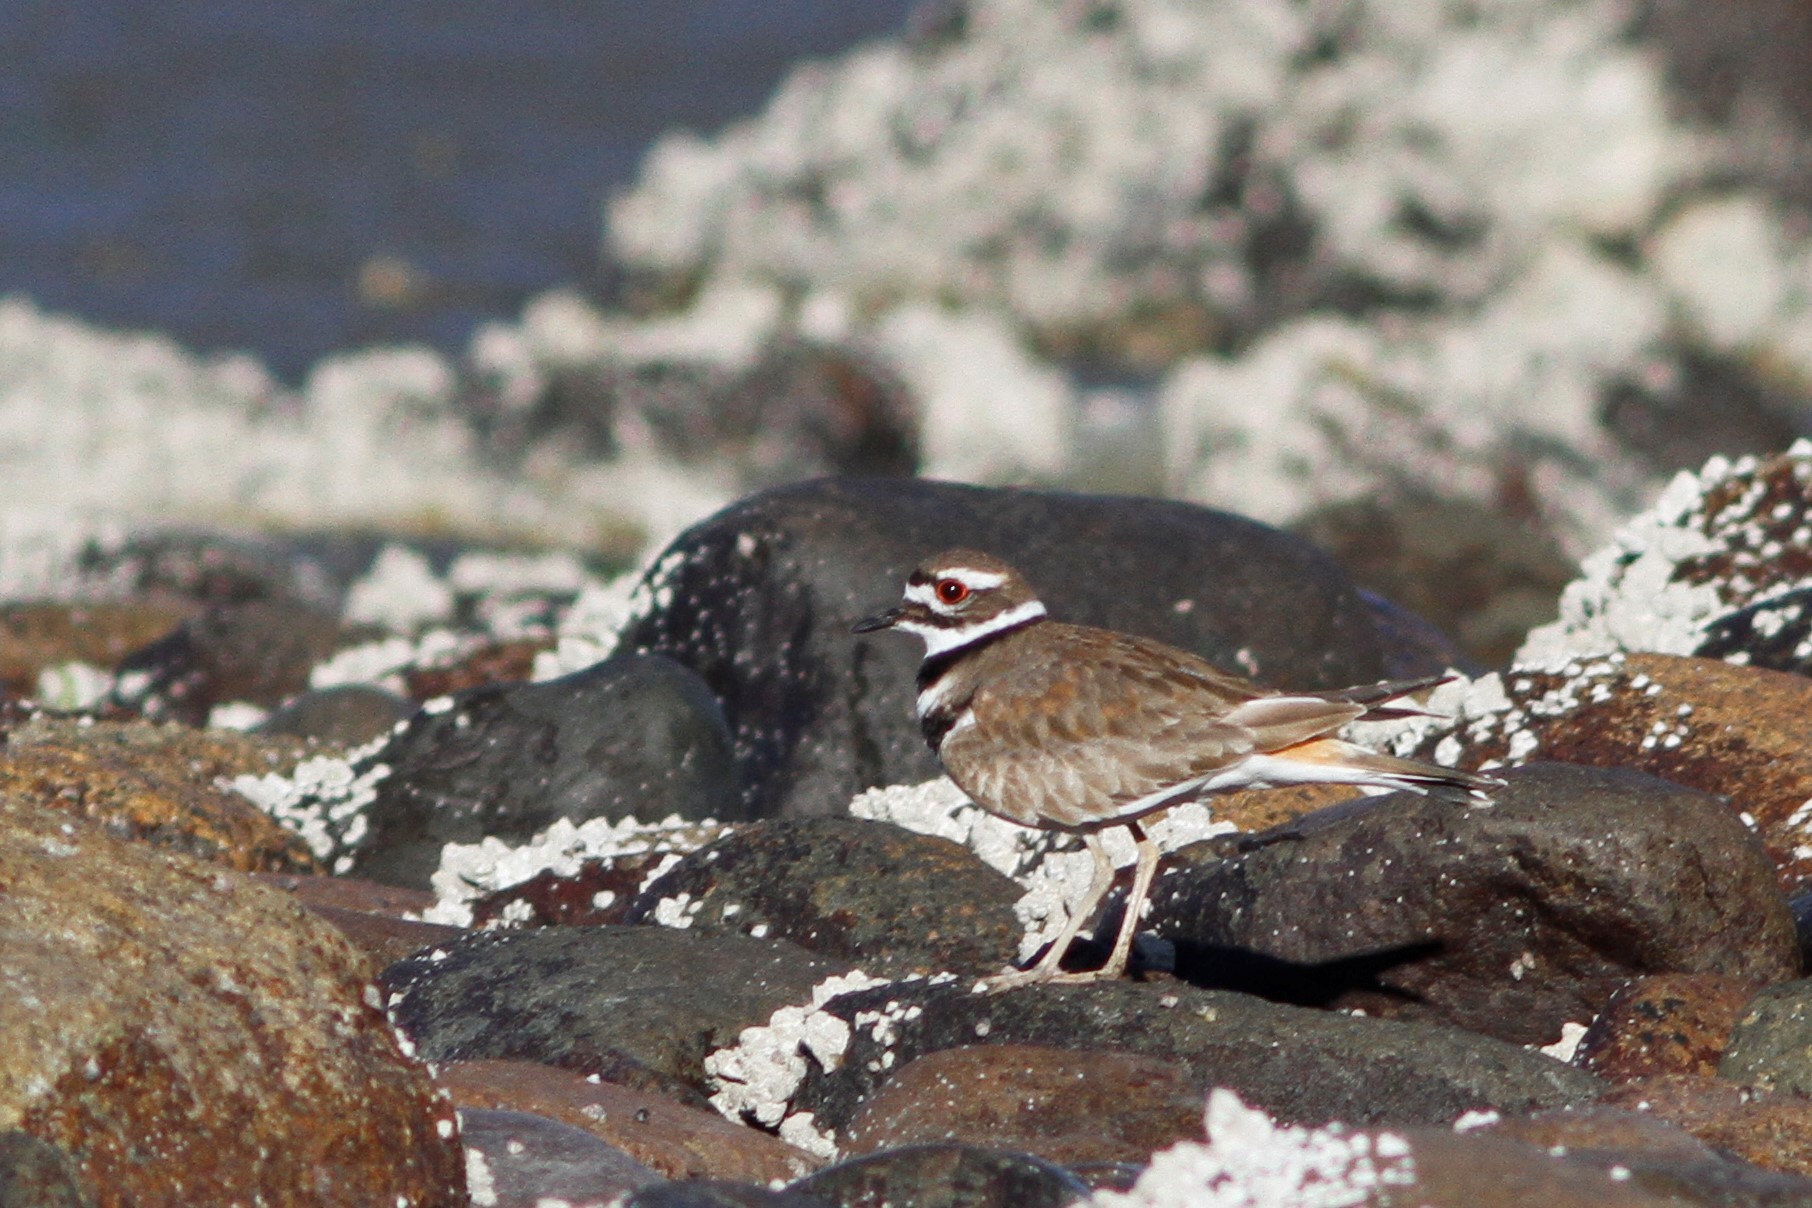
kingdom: Animalia
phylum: Chordata
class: Aves
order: Charadriiformes
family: Charadriidae
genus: Charadrius
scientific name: Charadrius vociferus
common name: Killdeer
